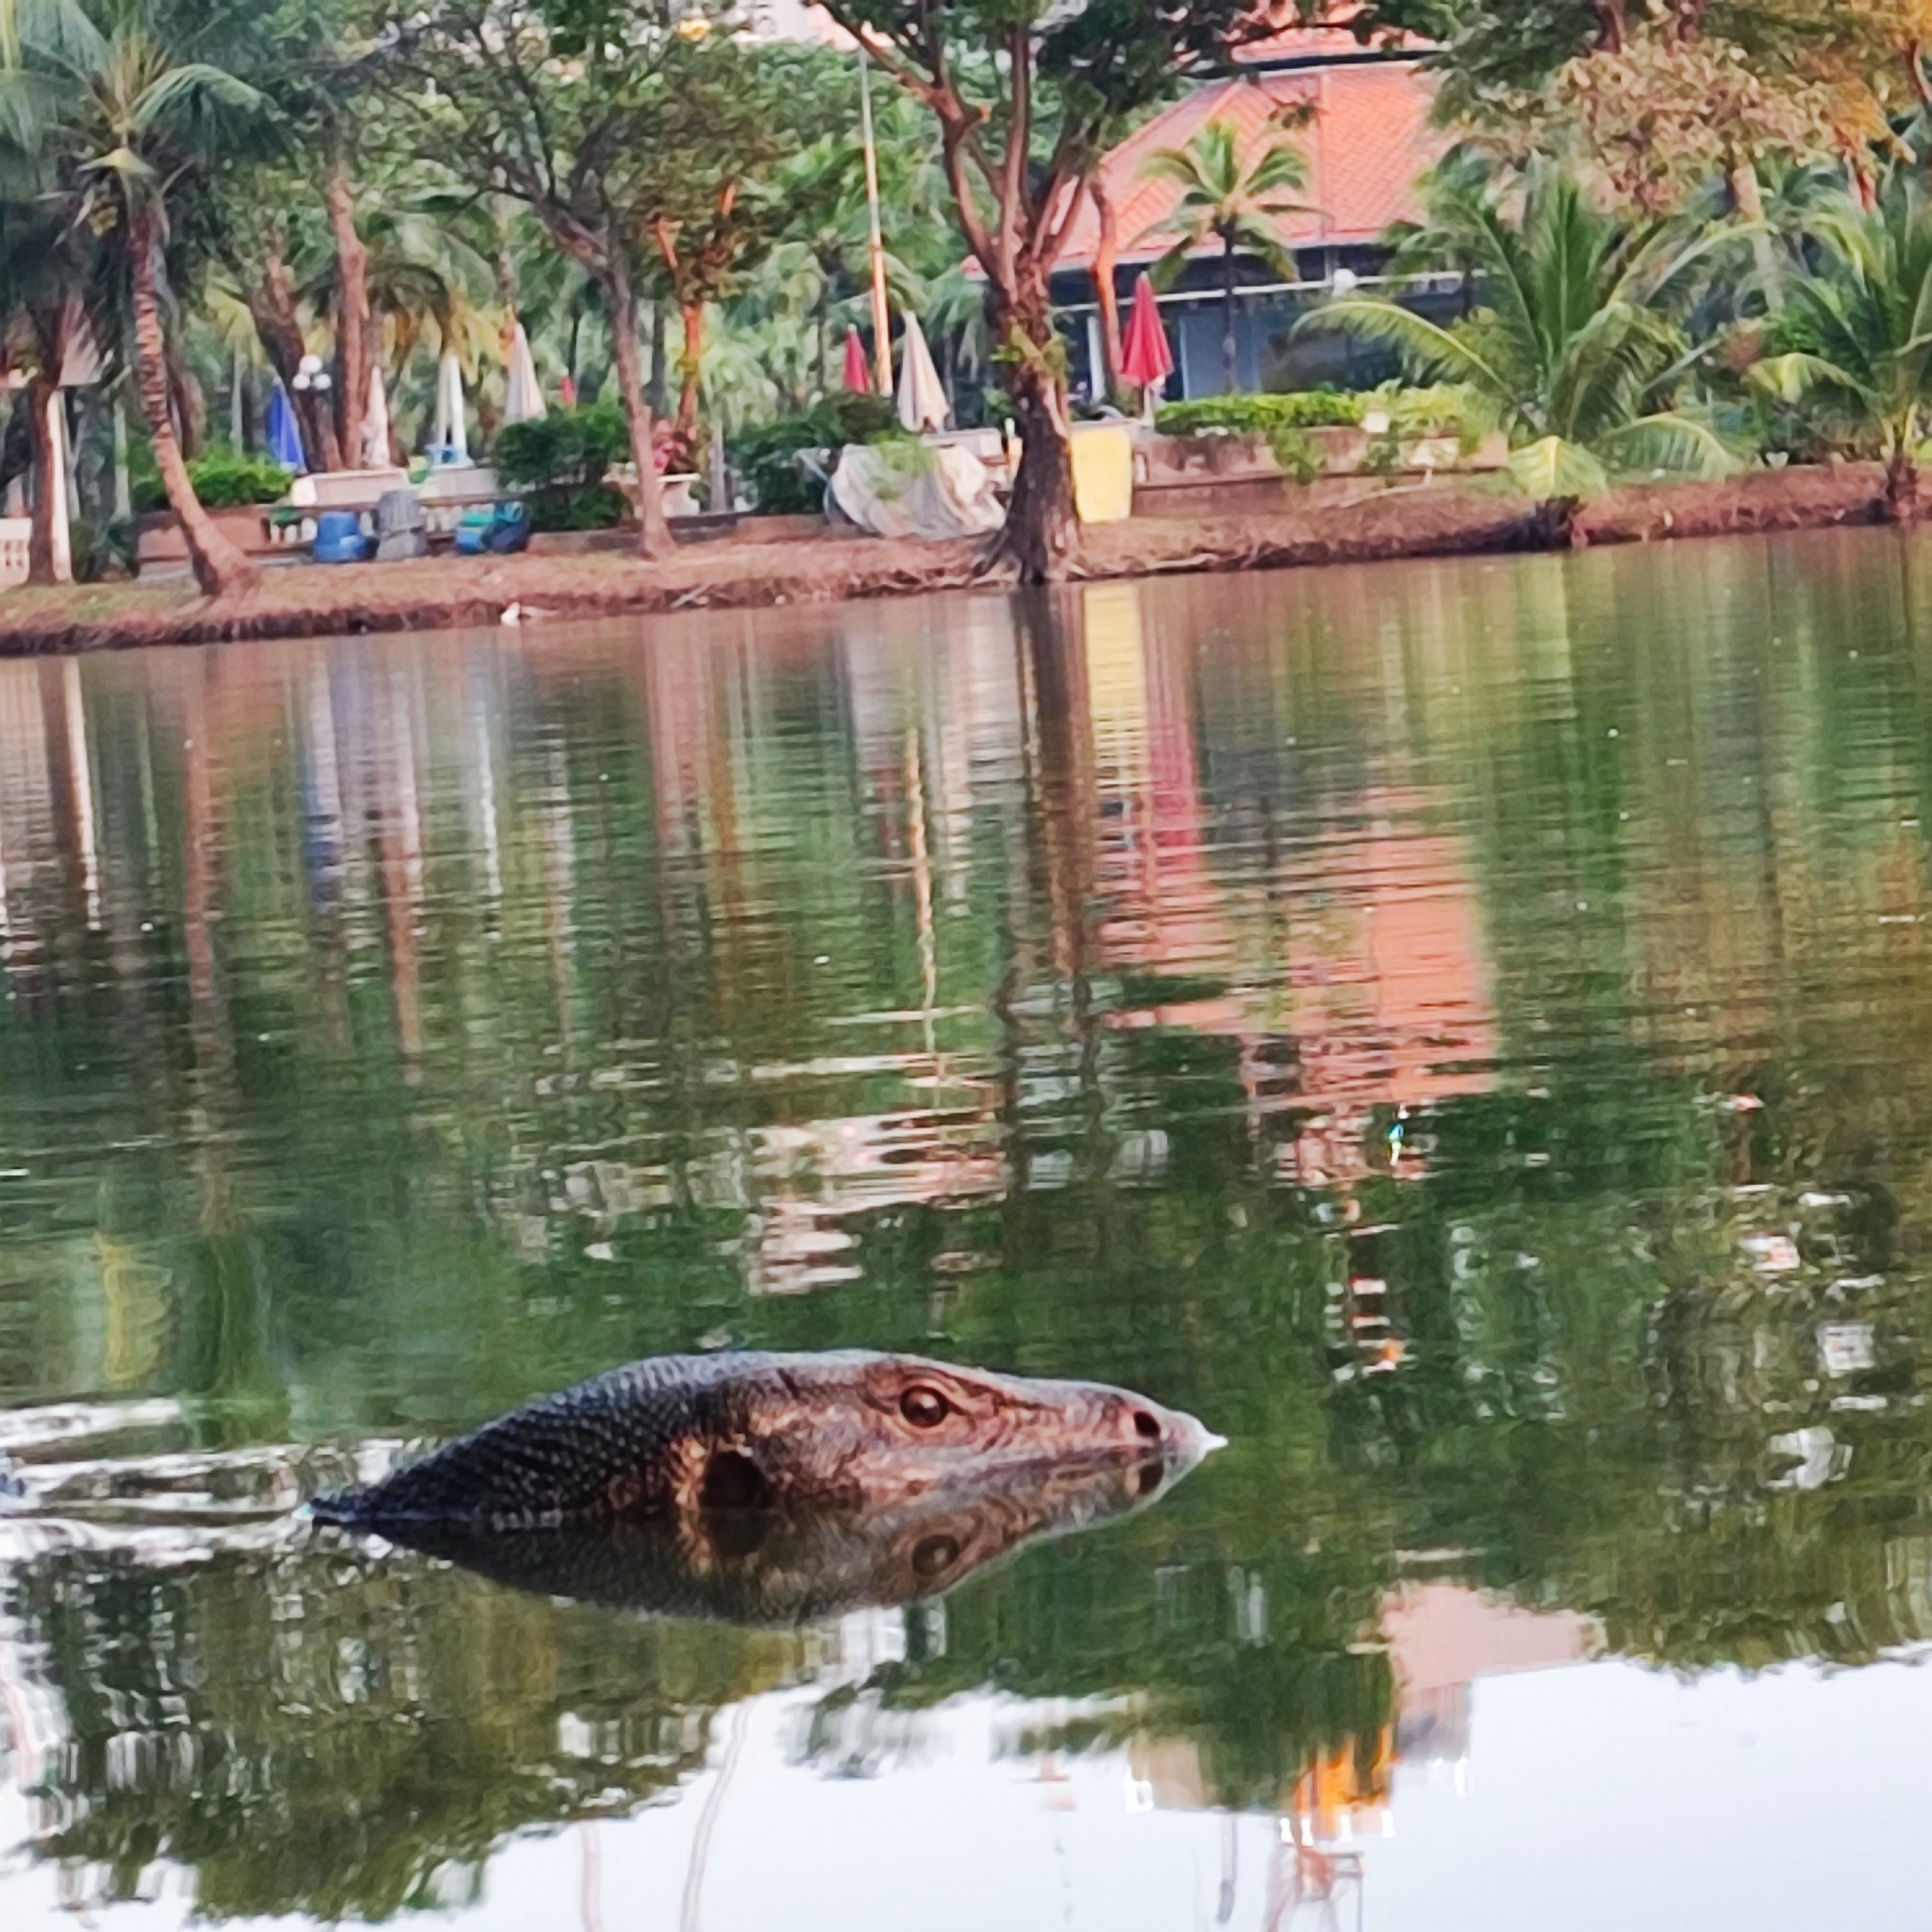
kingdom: Animalia
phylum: Chordata
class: Squamata
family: Varanidae
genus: Varanus
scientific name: Varanus salvator
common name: Common water monitor
